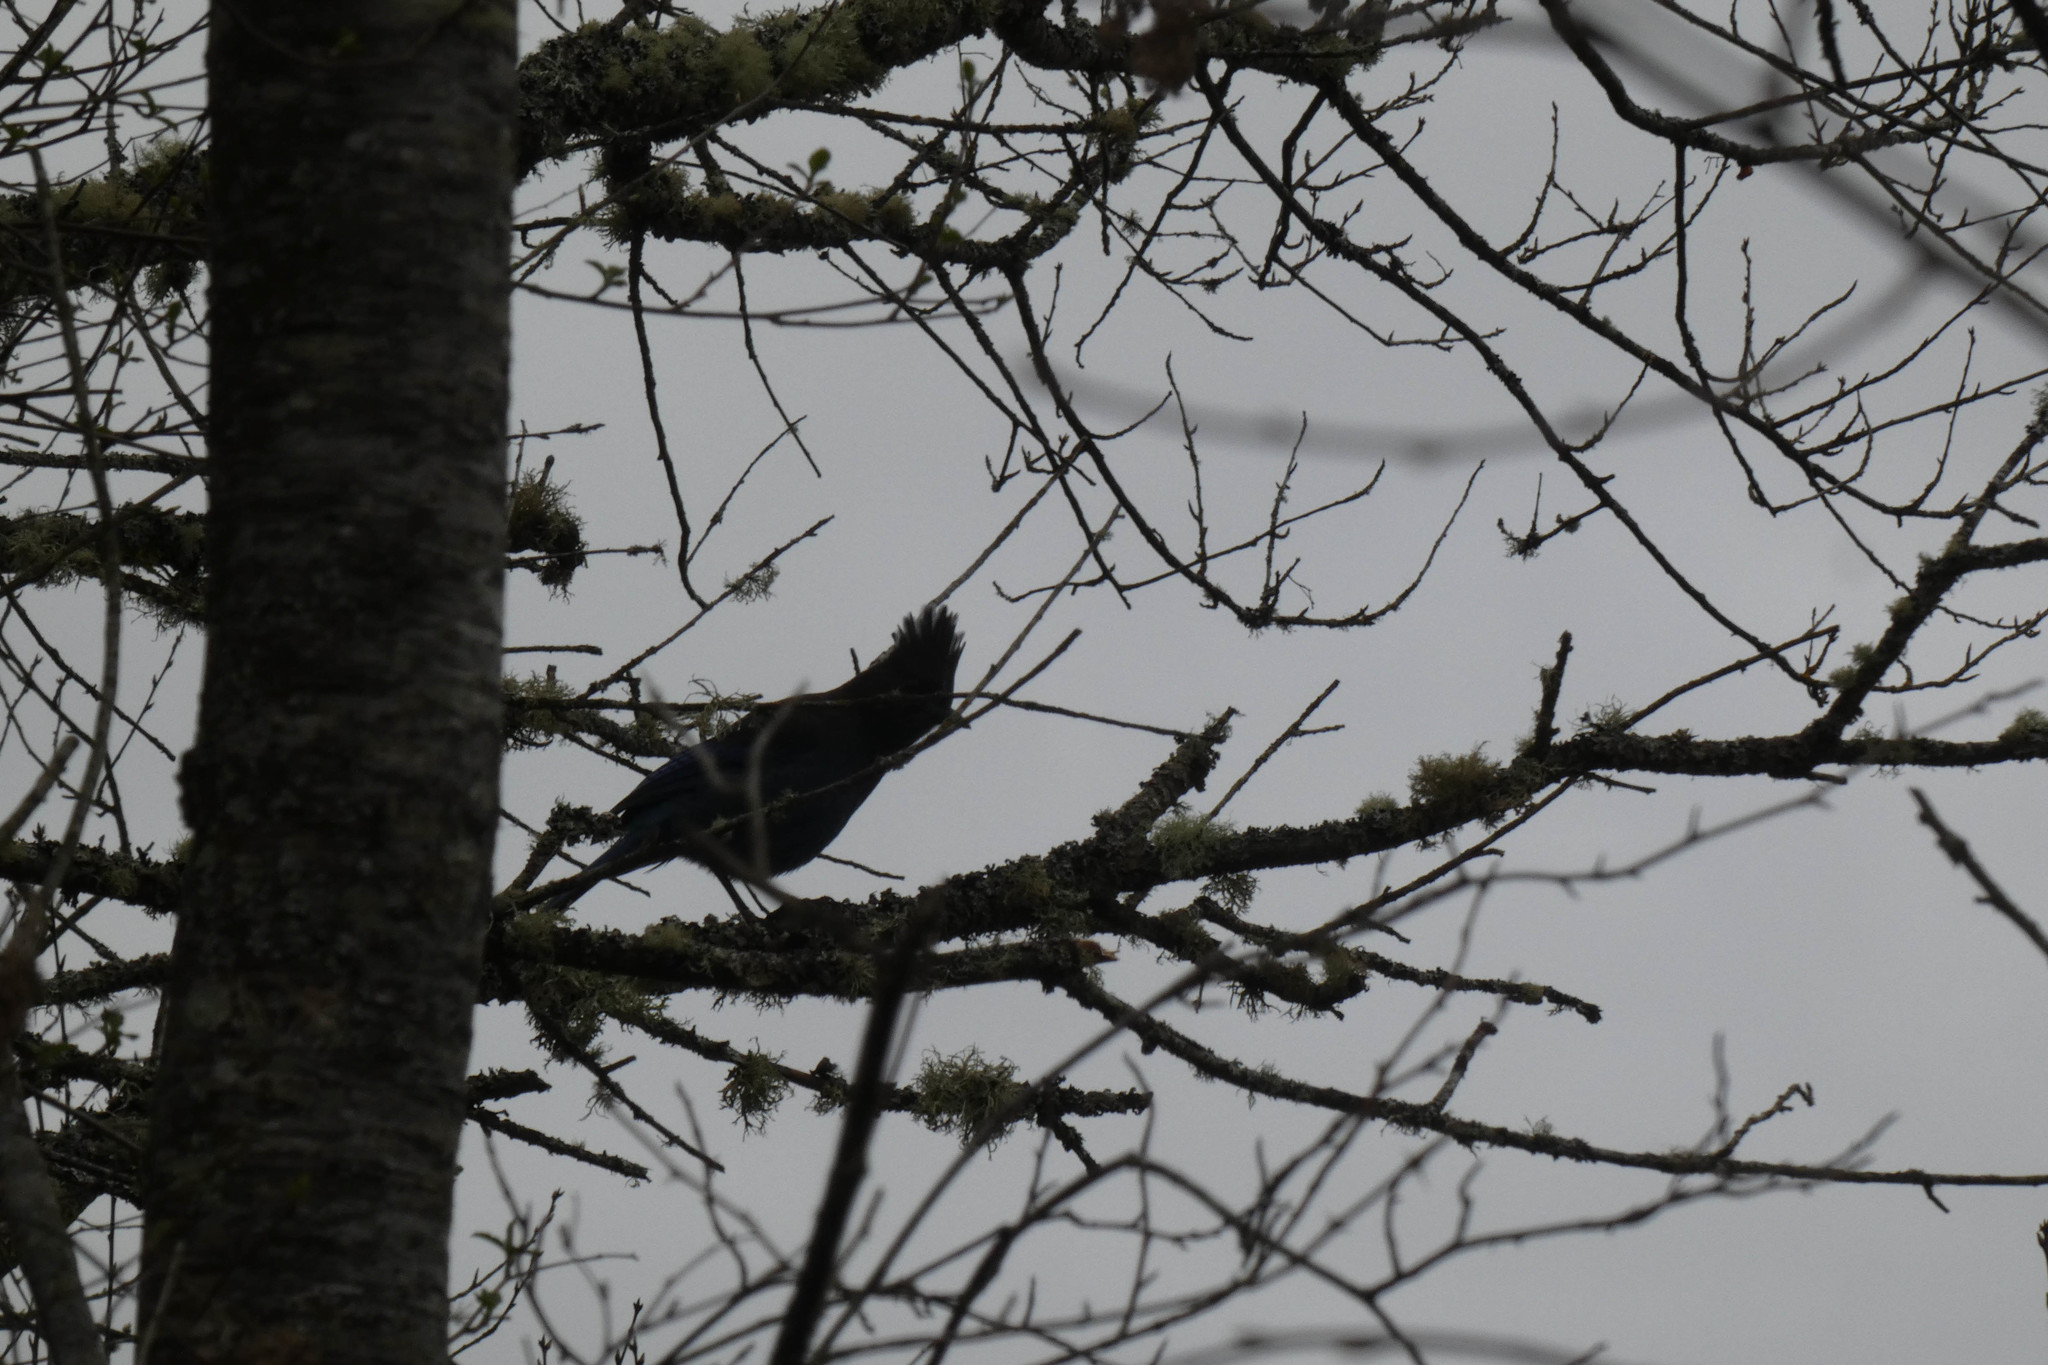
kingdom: Animalia
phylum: Chordata
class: Aves
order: Passeriformes
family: Corvidae
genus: Cyanocitta
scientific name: Cyanocitta stelleri
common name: Steller's jay
